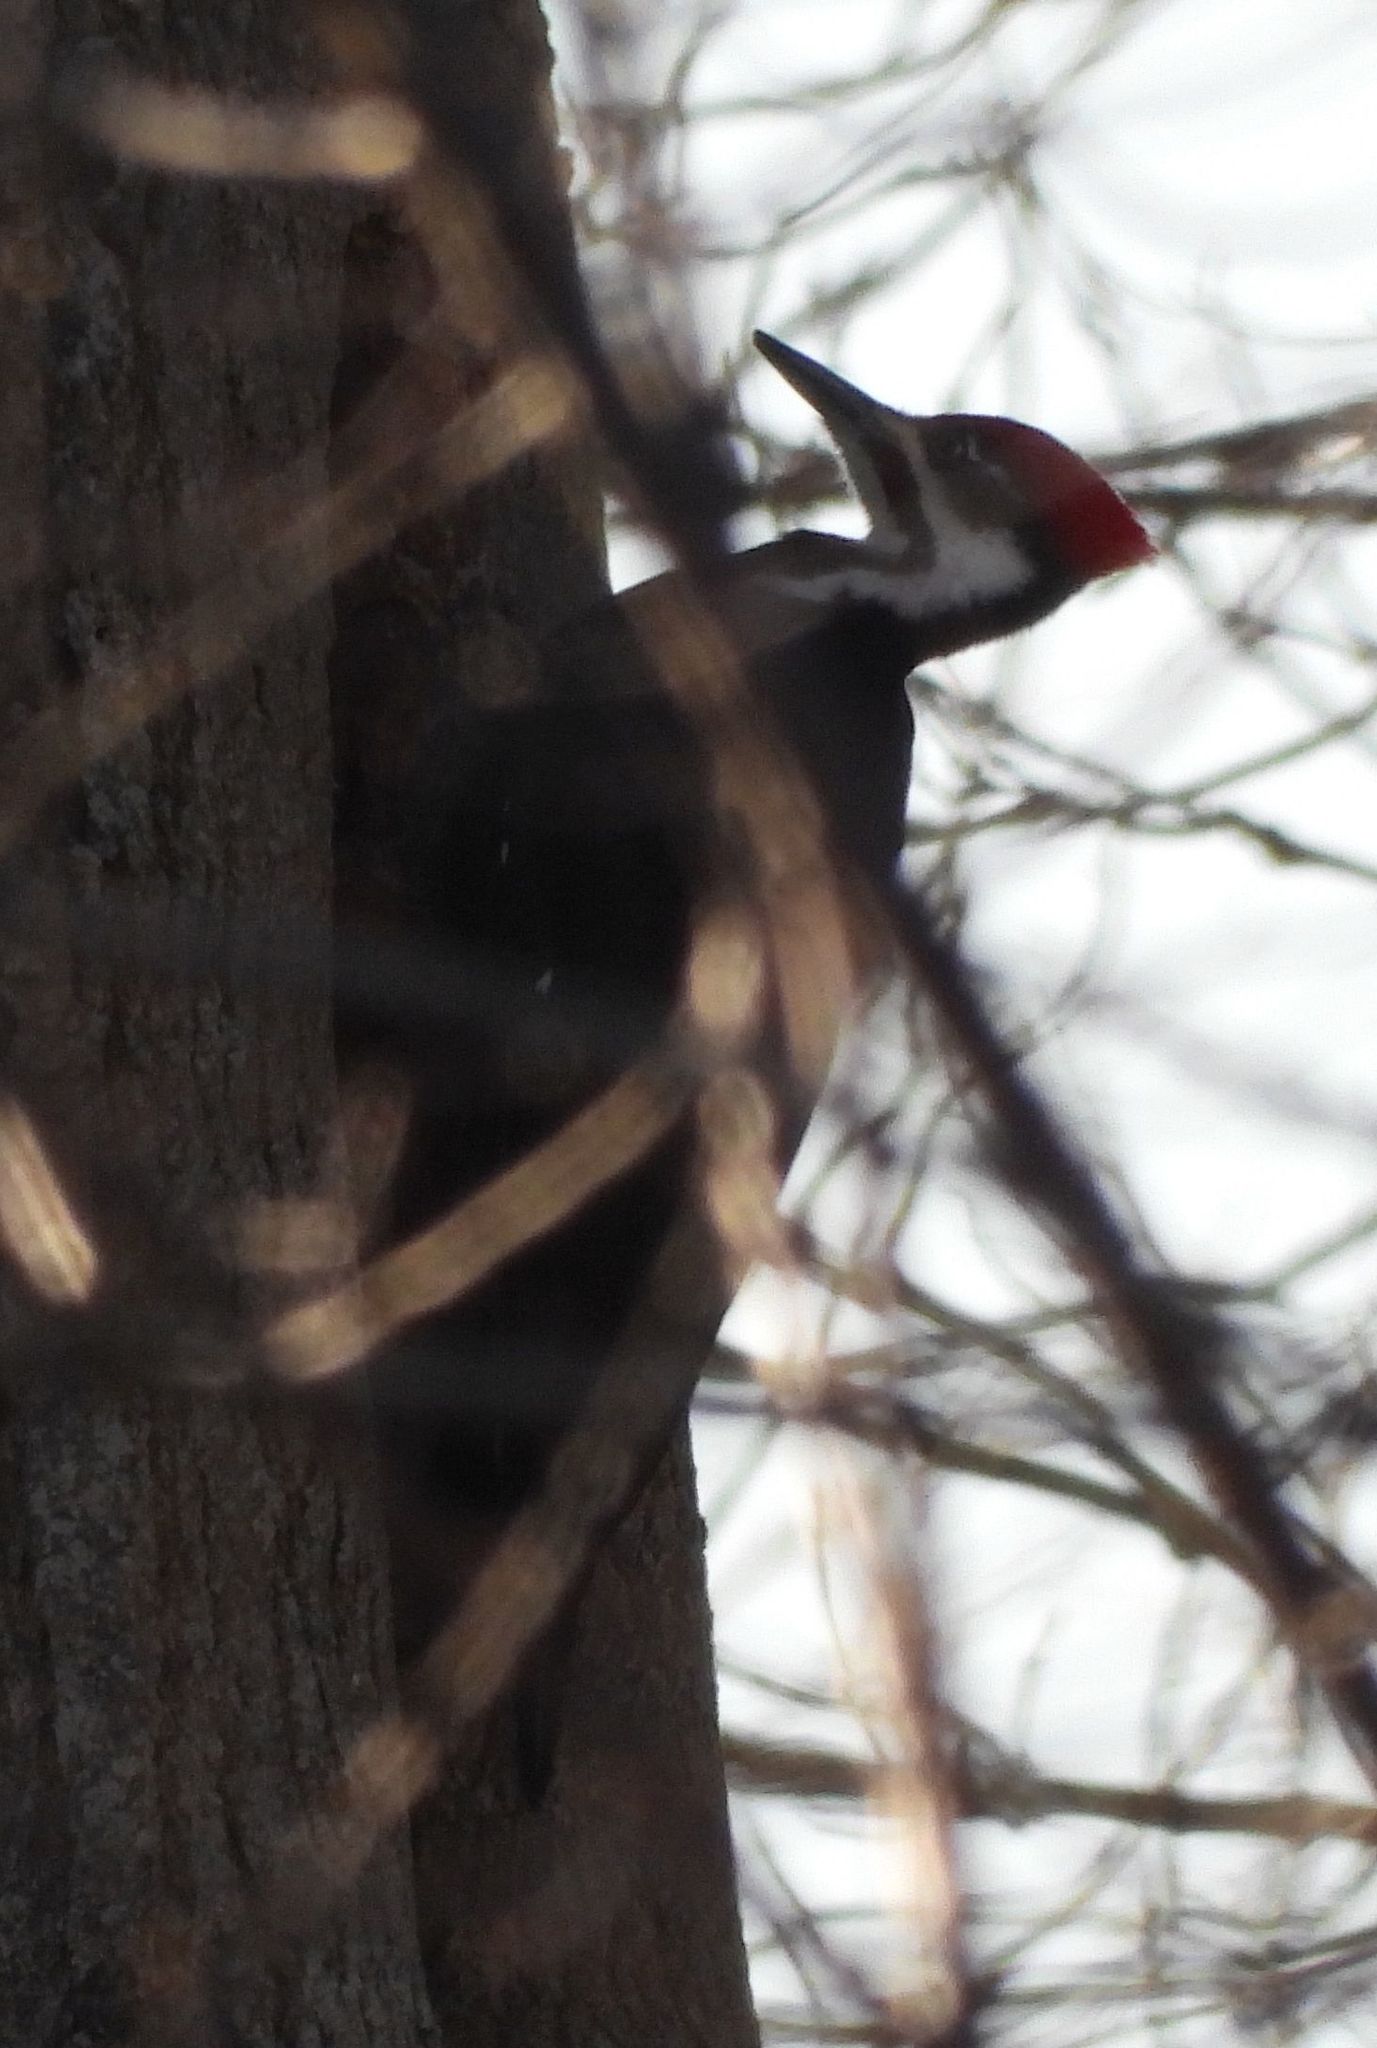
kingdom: Animalia
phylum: Chordata
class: Aves
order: Piciformes
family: Picidae
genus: Dryocopus
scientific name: Dryocopus pileatus
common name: Pileated woodpecker
